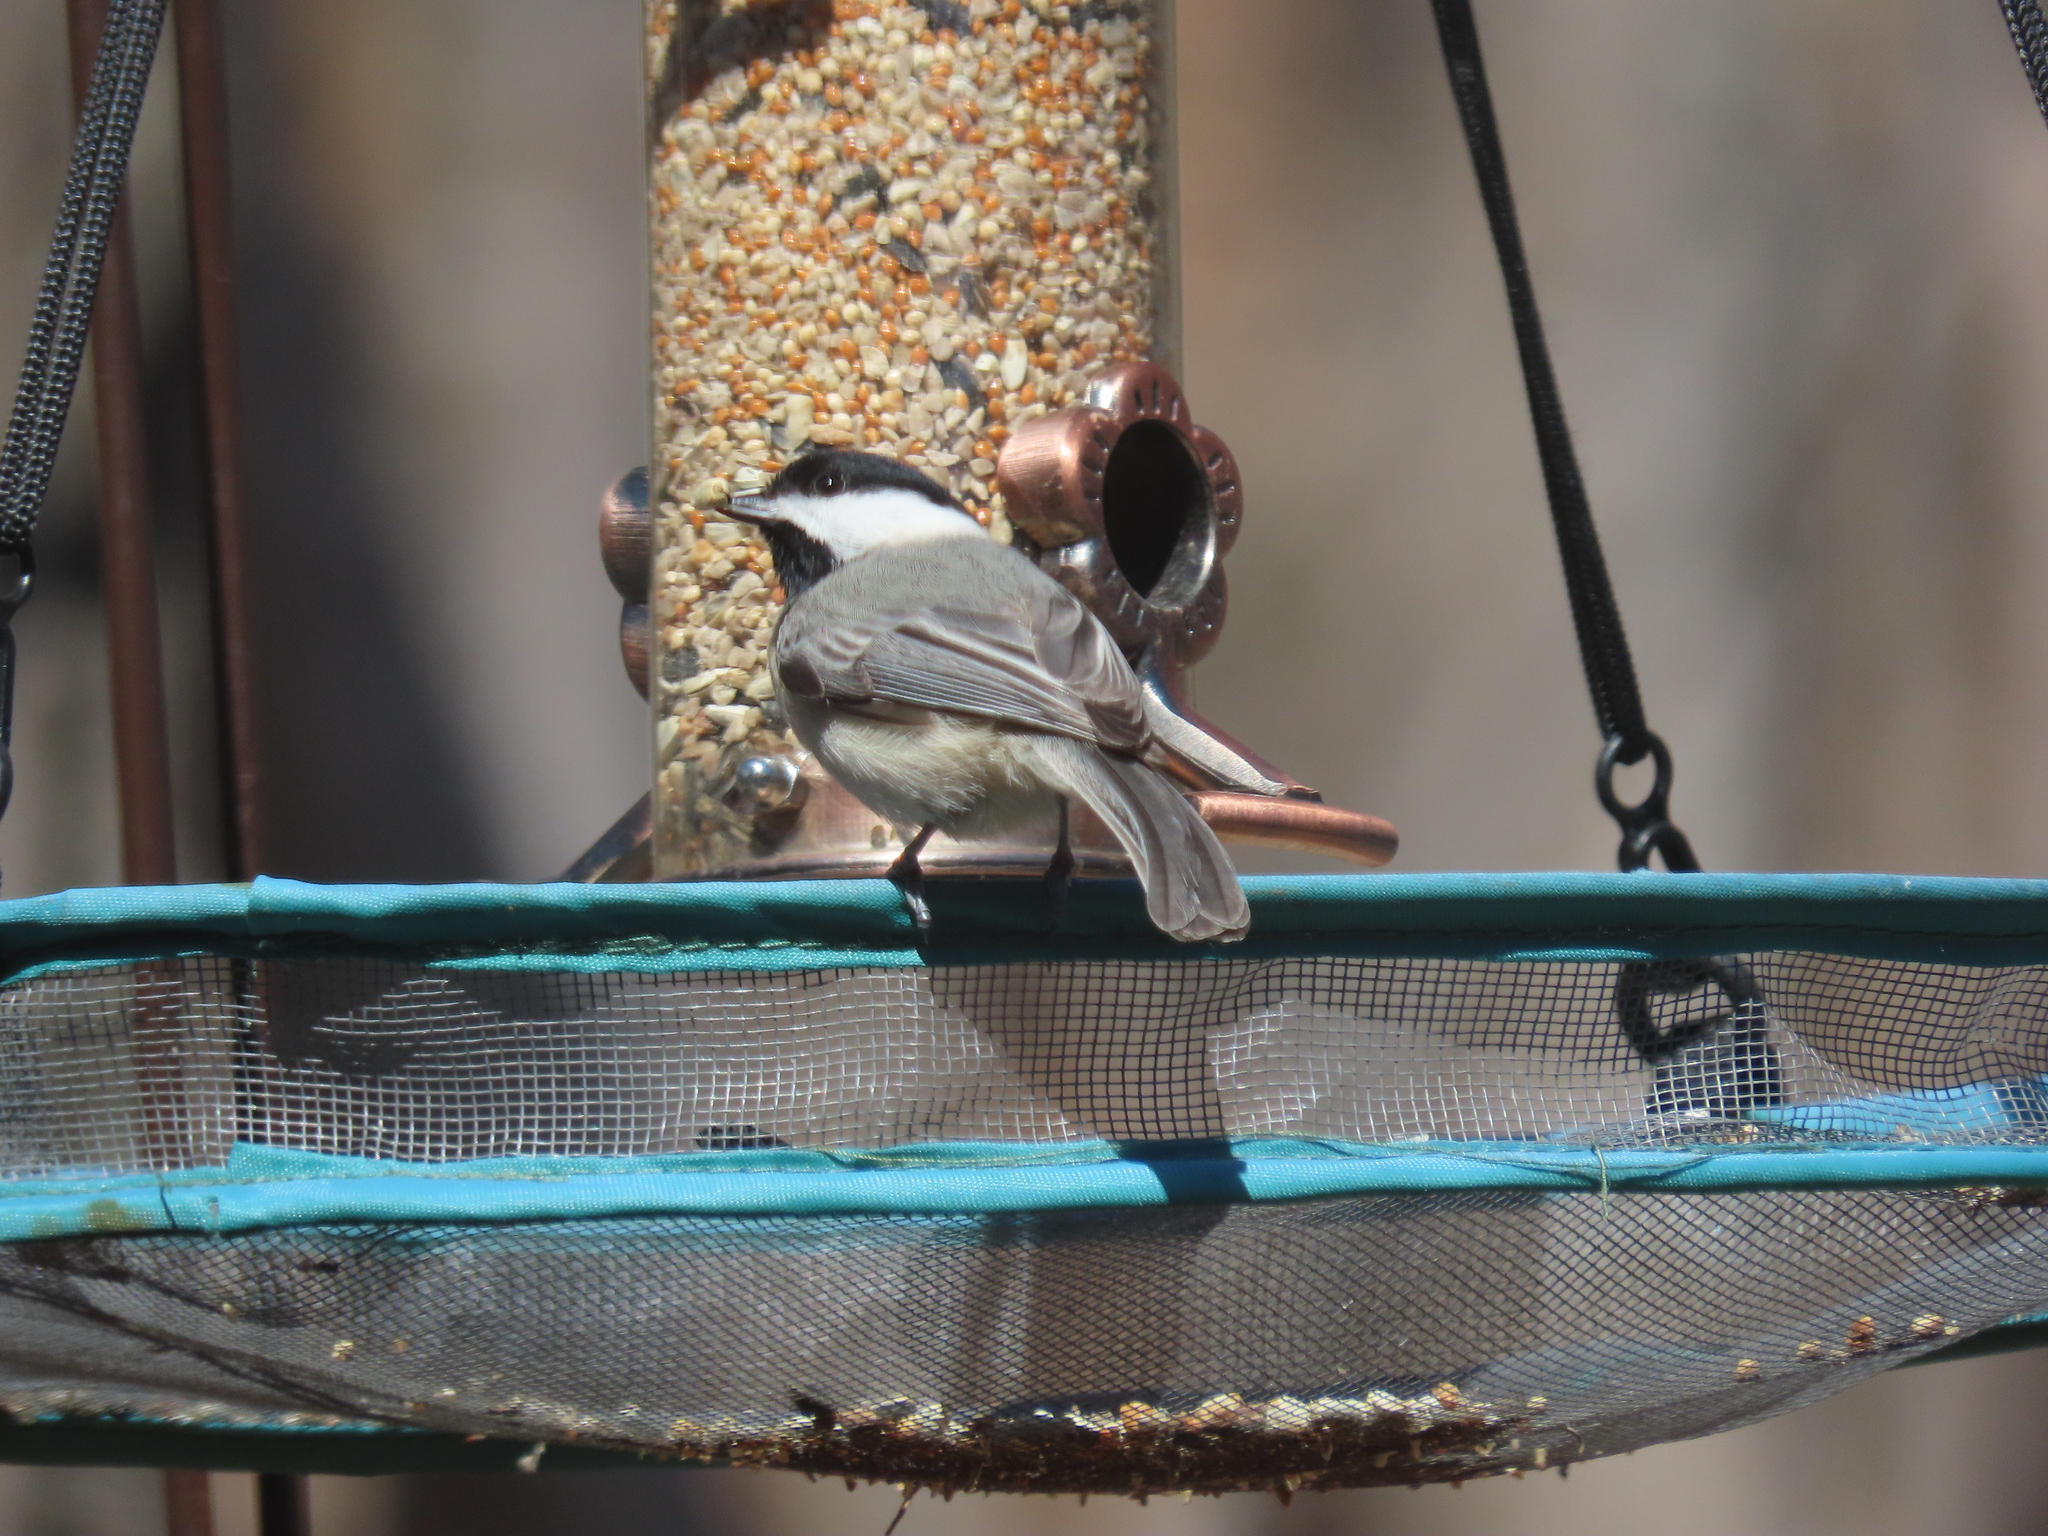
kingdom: Animalia
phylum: Chordata
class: Aves
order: Passeriformes
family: Paridae
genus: Poecile
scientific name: Poecile carolinensis
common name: Carolina chickadee
